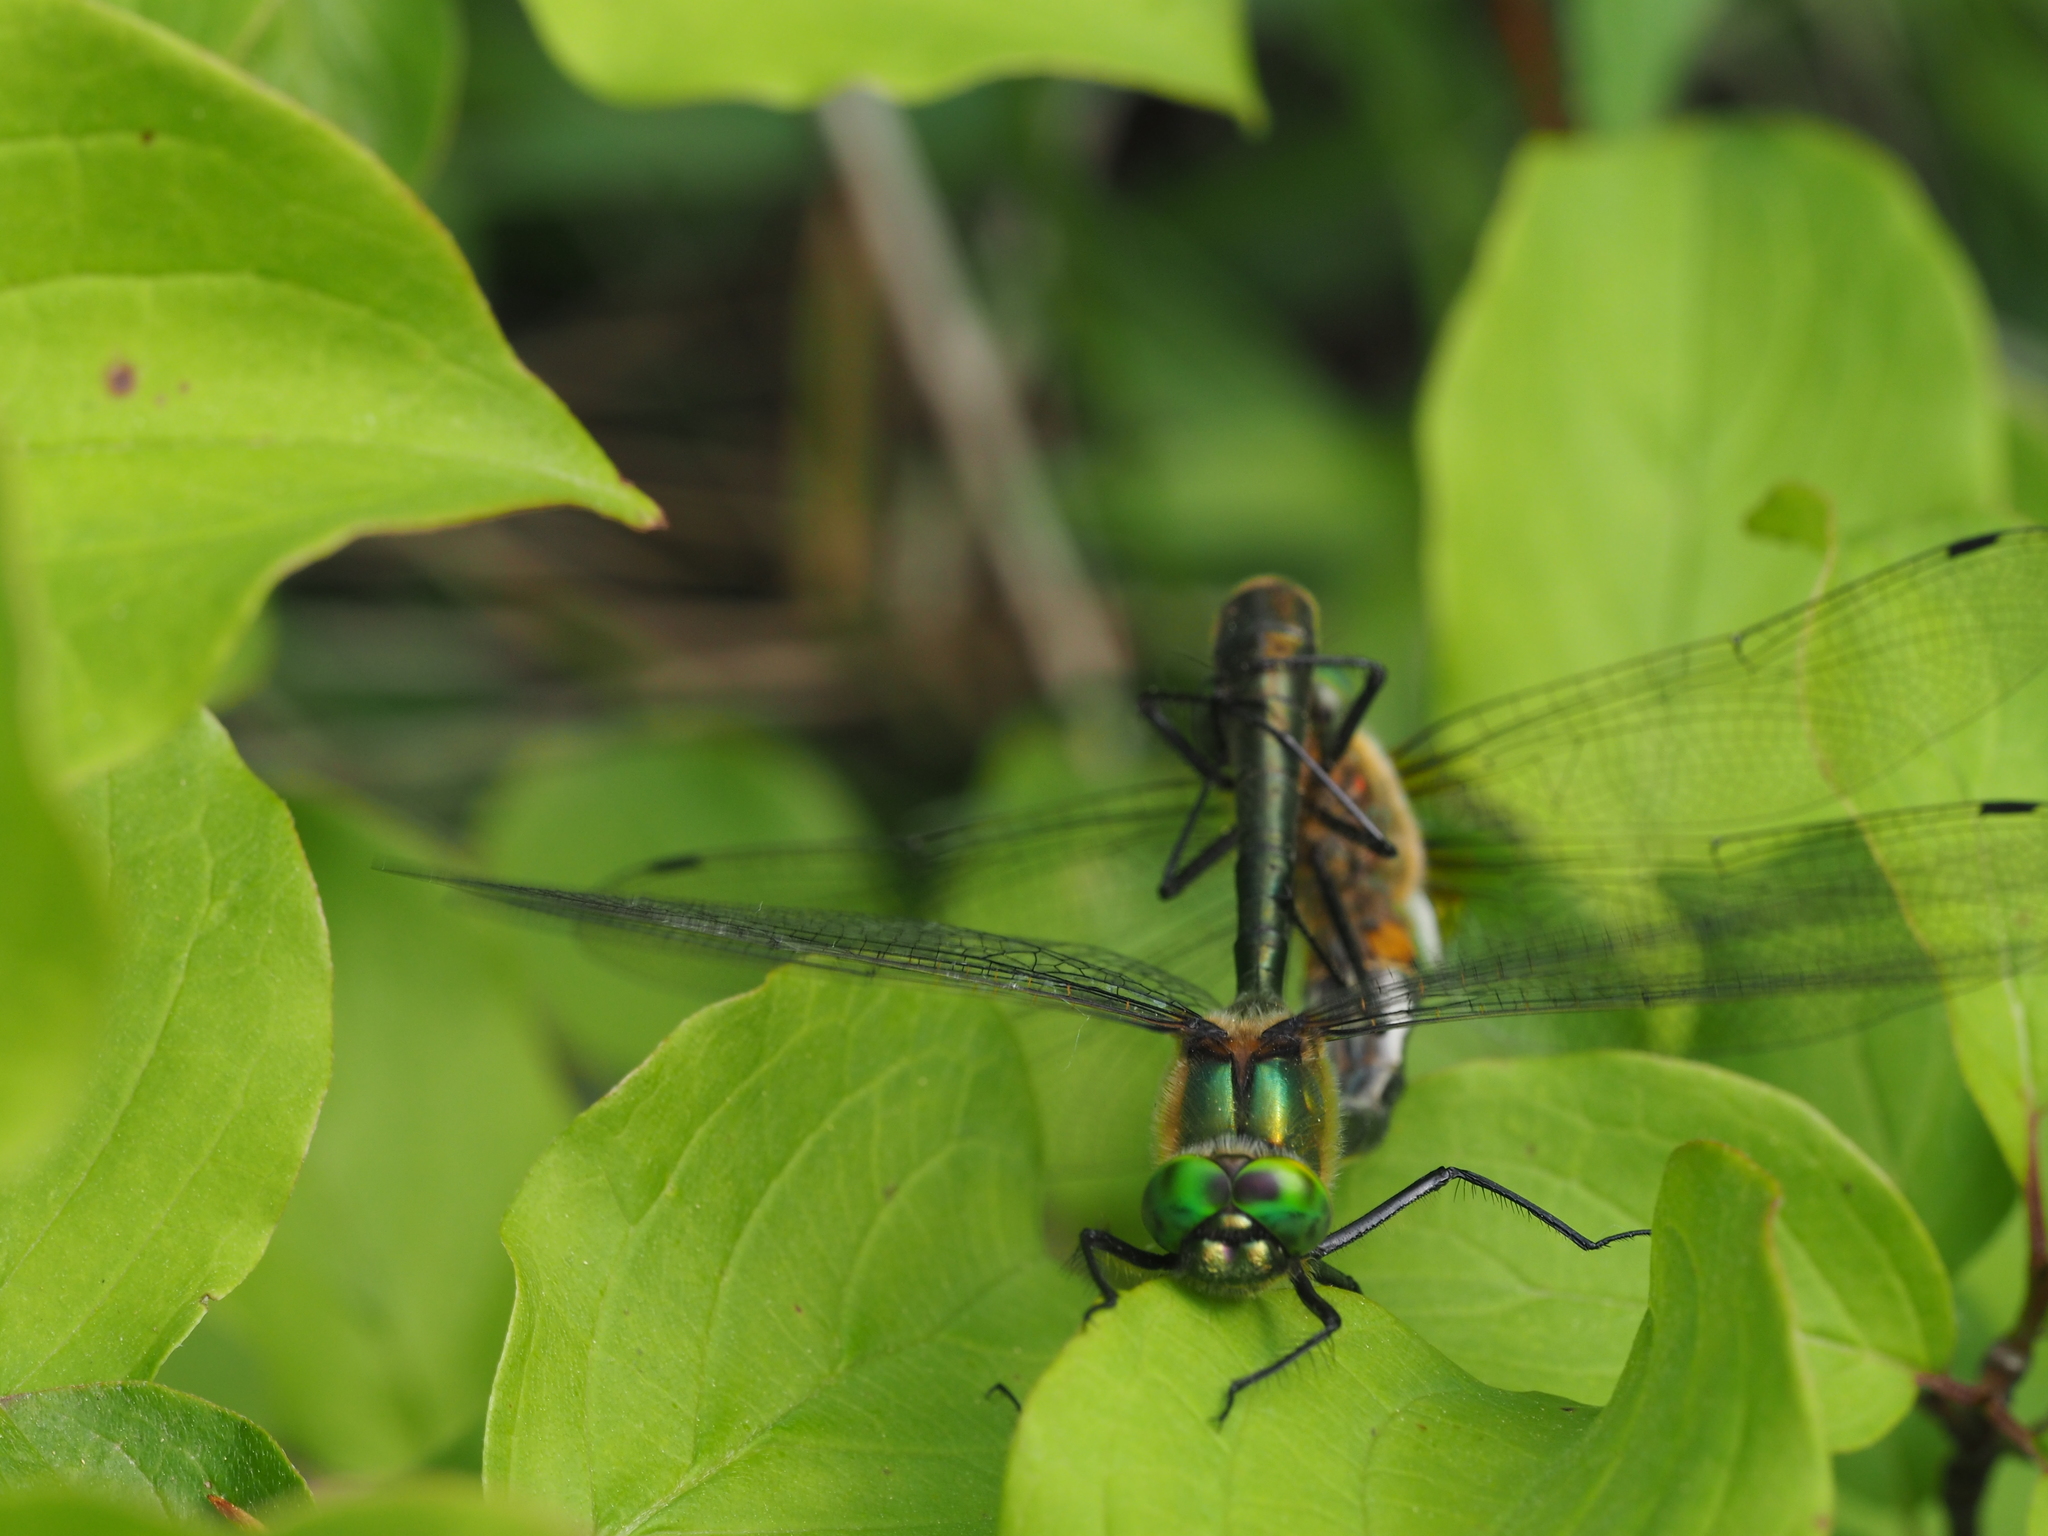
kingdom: Animalia
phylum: Arthropoda
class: Insecta
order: Odonata
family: Corduliidae
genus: Cordulia
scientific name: Cordulia aenea
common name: Downy emerald
